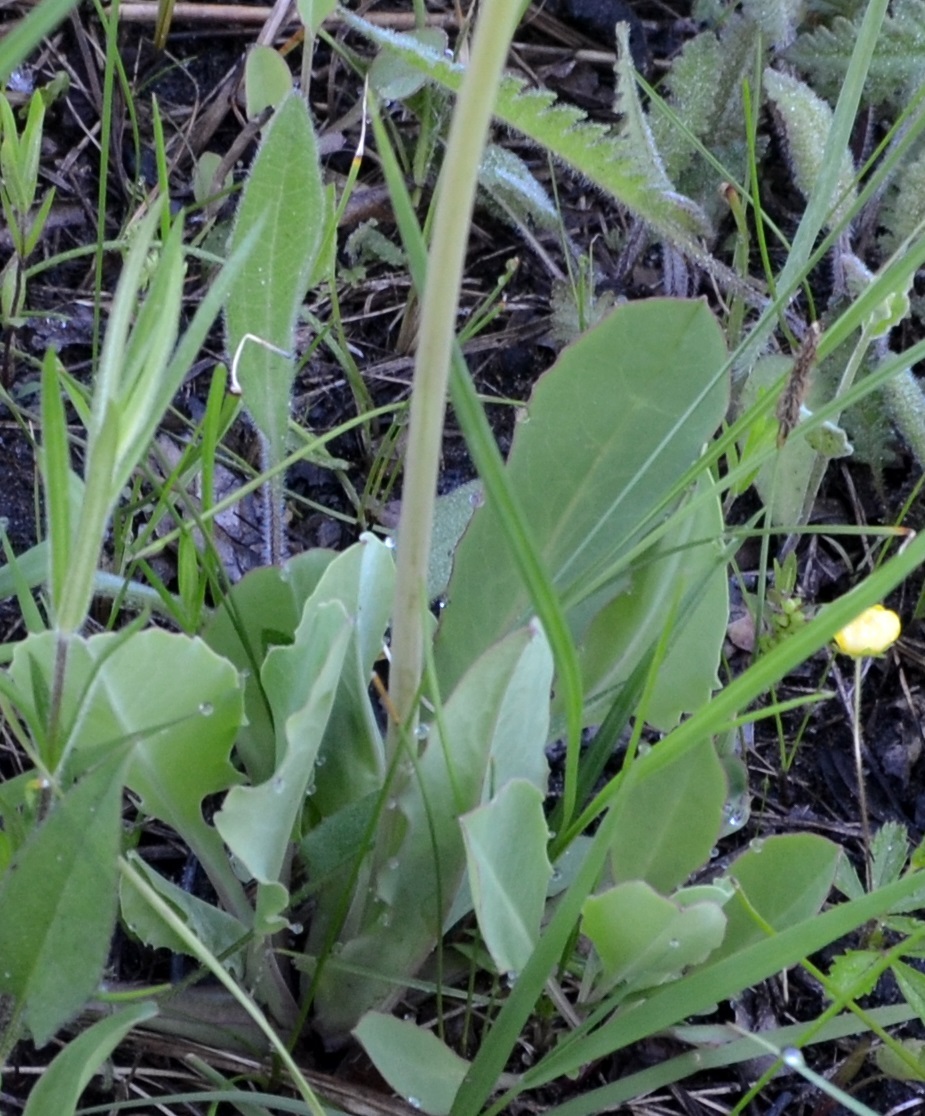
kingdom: Plantae
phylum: Tracheophyta
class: Magnoliopsida
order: Asterales
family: Asteraceae
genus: Krigia
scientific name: Krigia biflora
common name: Orange dwarf-dandelion
